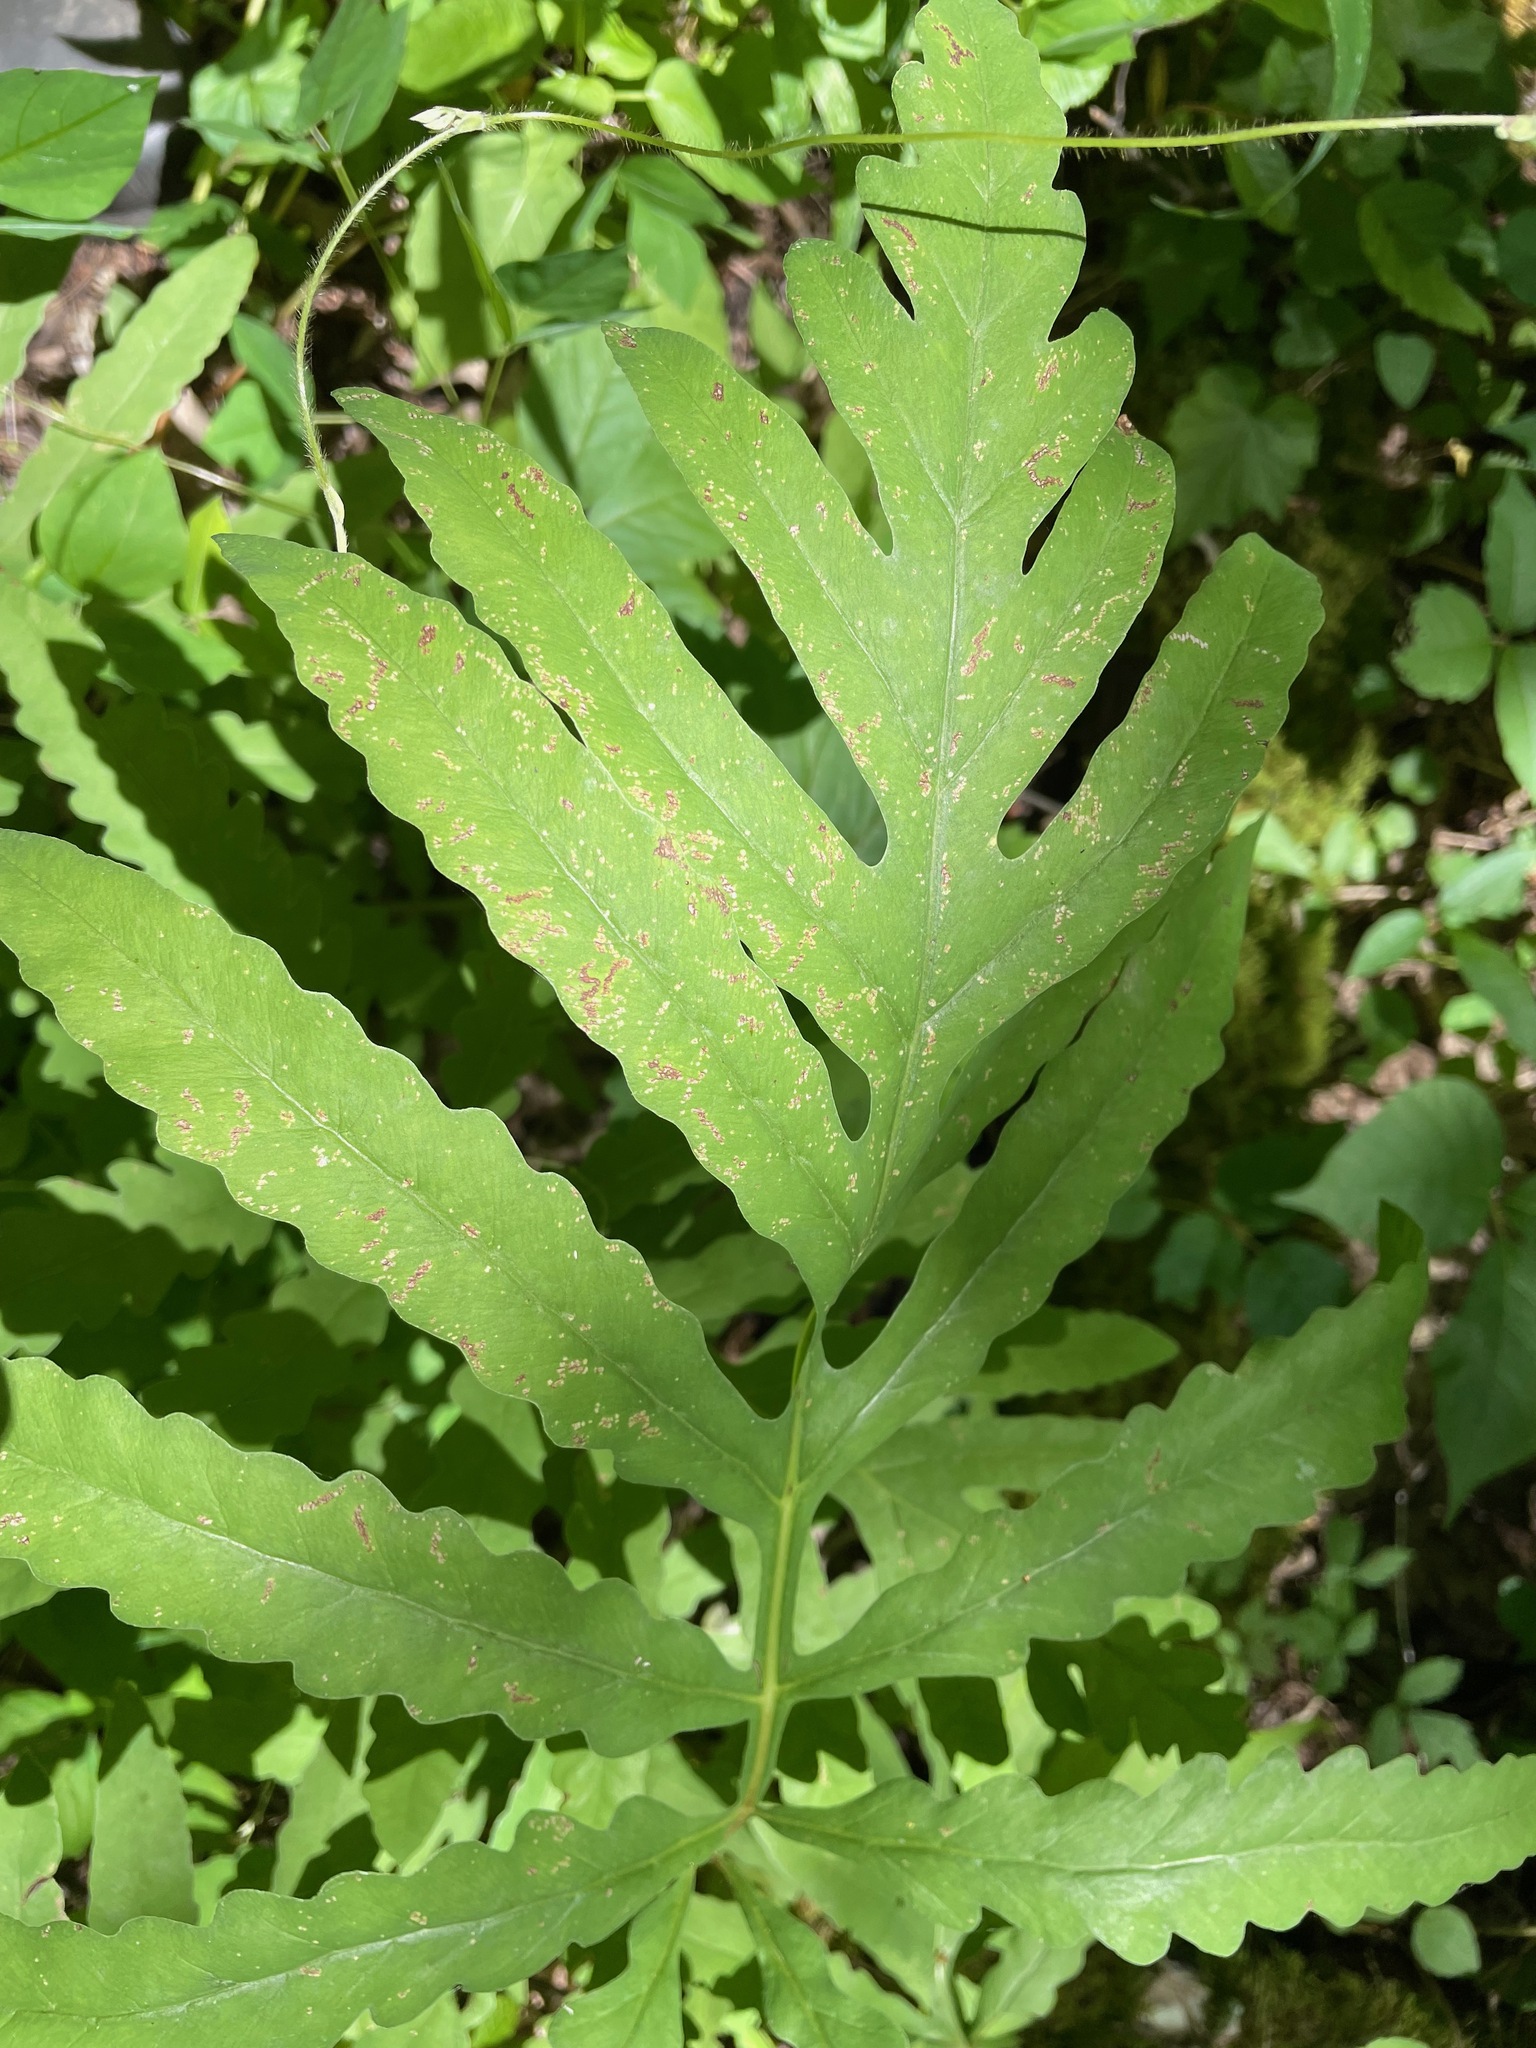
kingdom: Plantae
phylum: Tracheophyta
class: Polypodiopsida
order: Polypodiales
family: Onocleaceae
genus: Onoclea
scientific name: Onoclea sensibilis
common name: Sensitive fern
